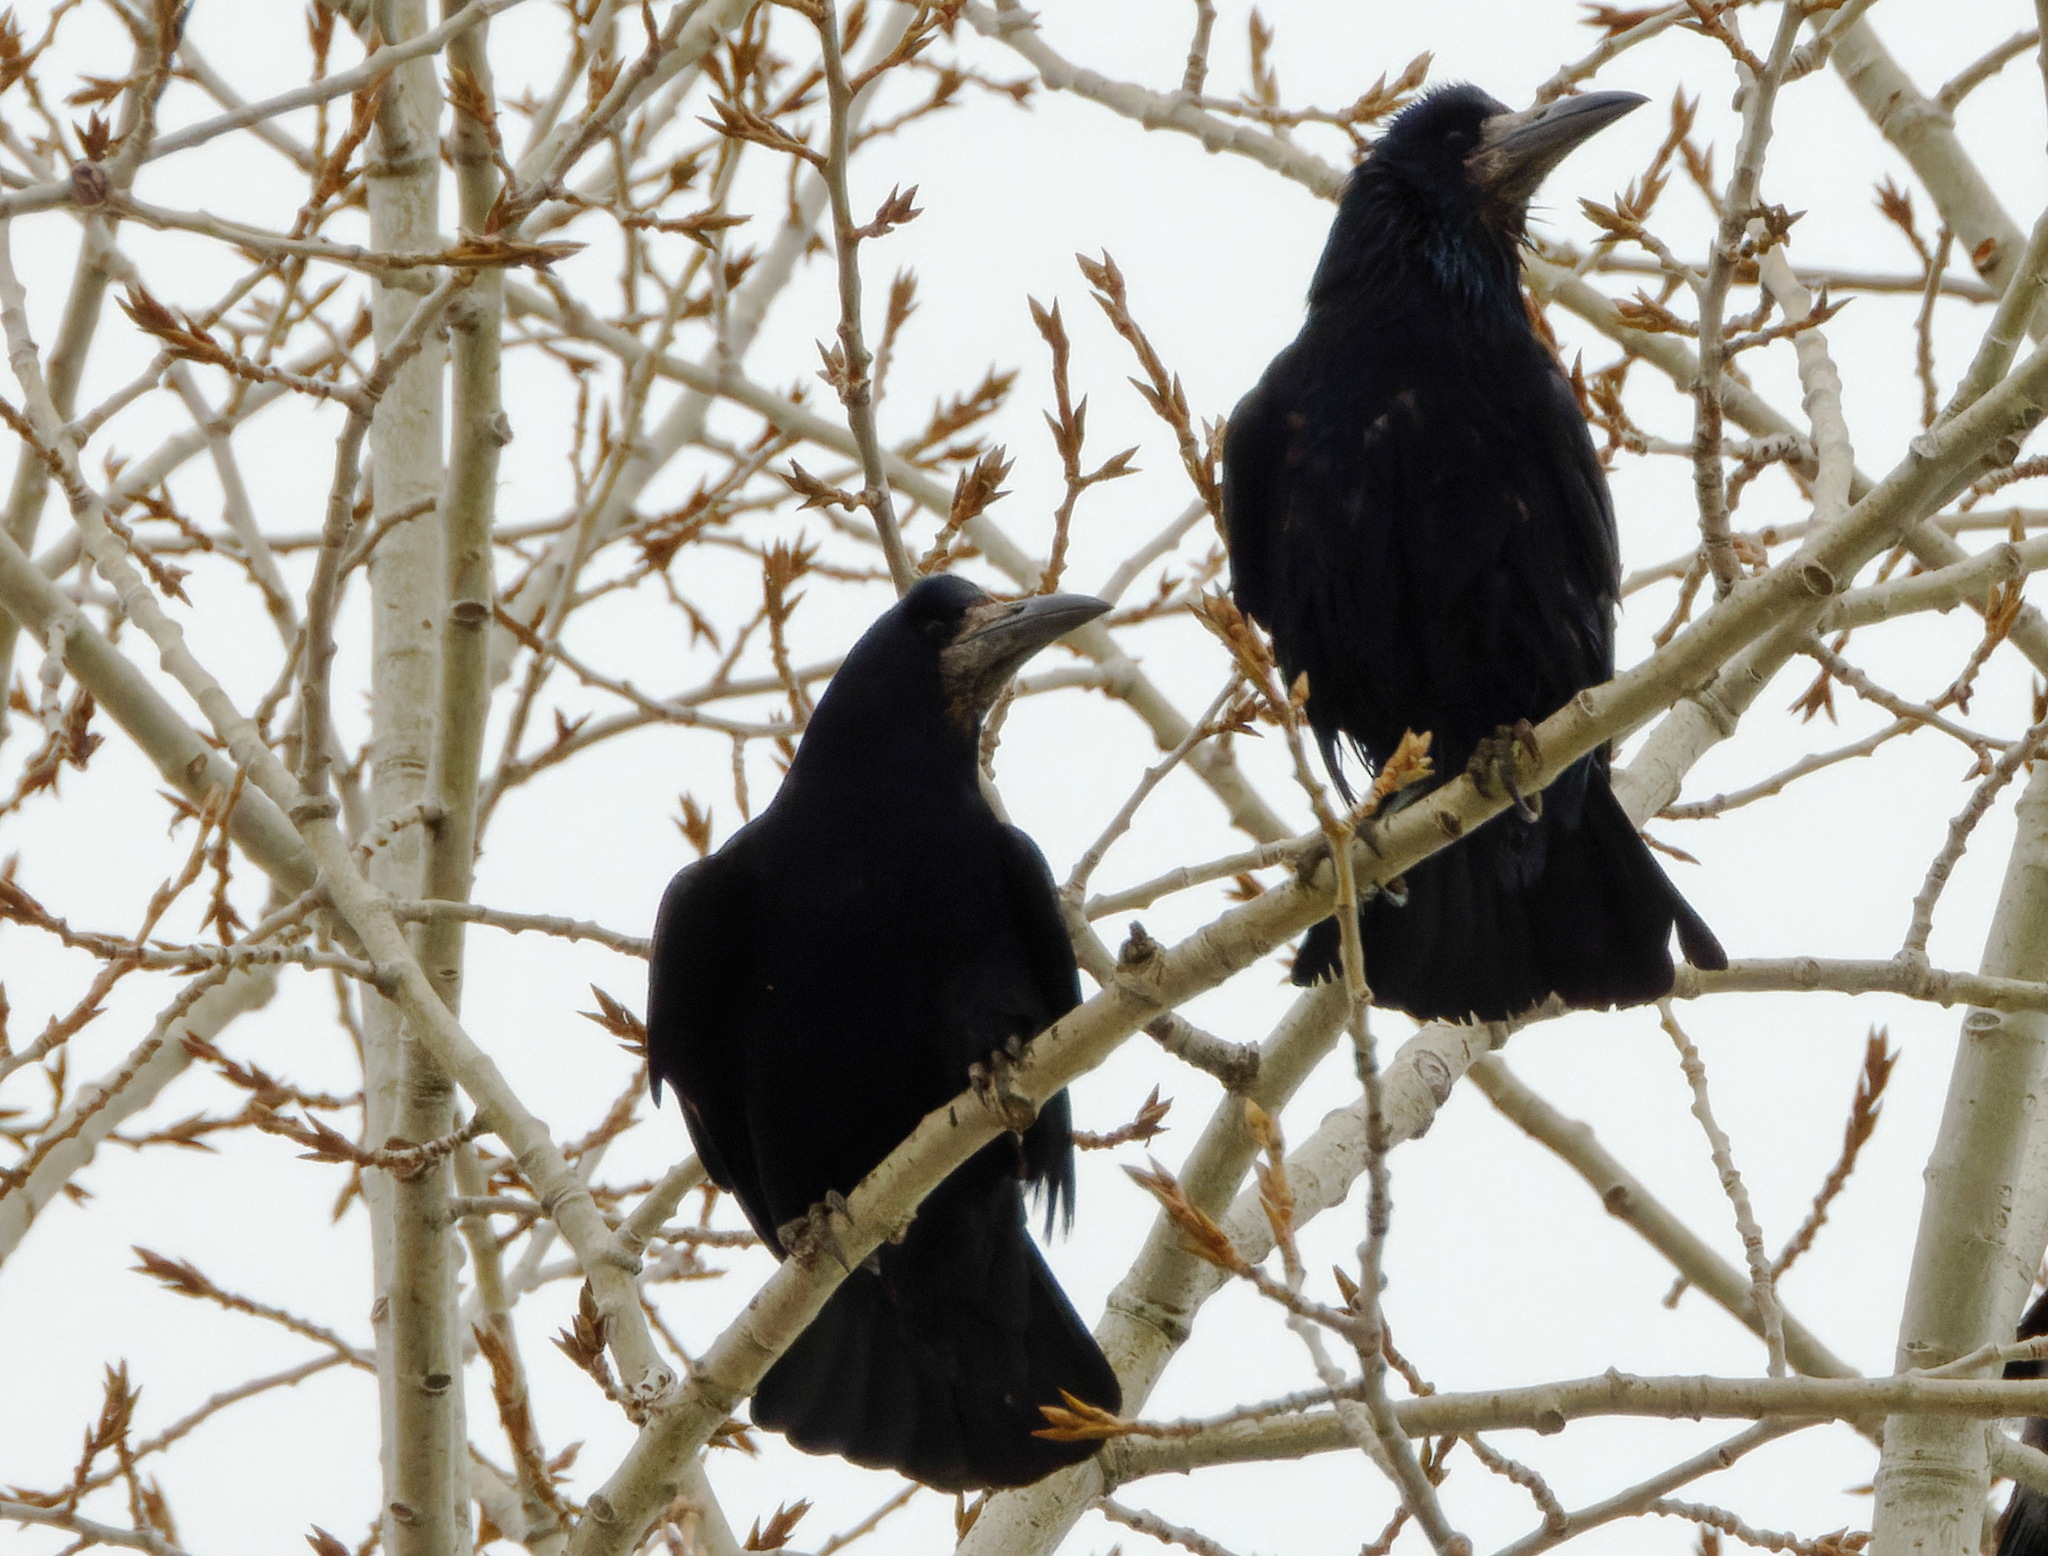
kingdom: Animalia
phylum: Chordata
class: Aves
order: Passeriformes
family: Corvidae
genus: Corvus
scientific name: Corvus frugilegus
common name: Rook
